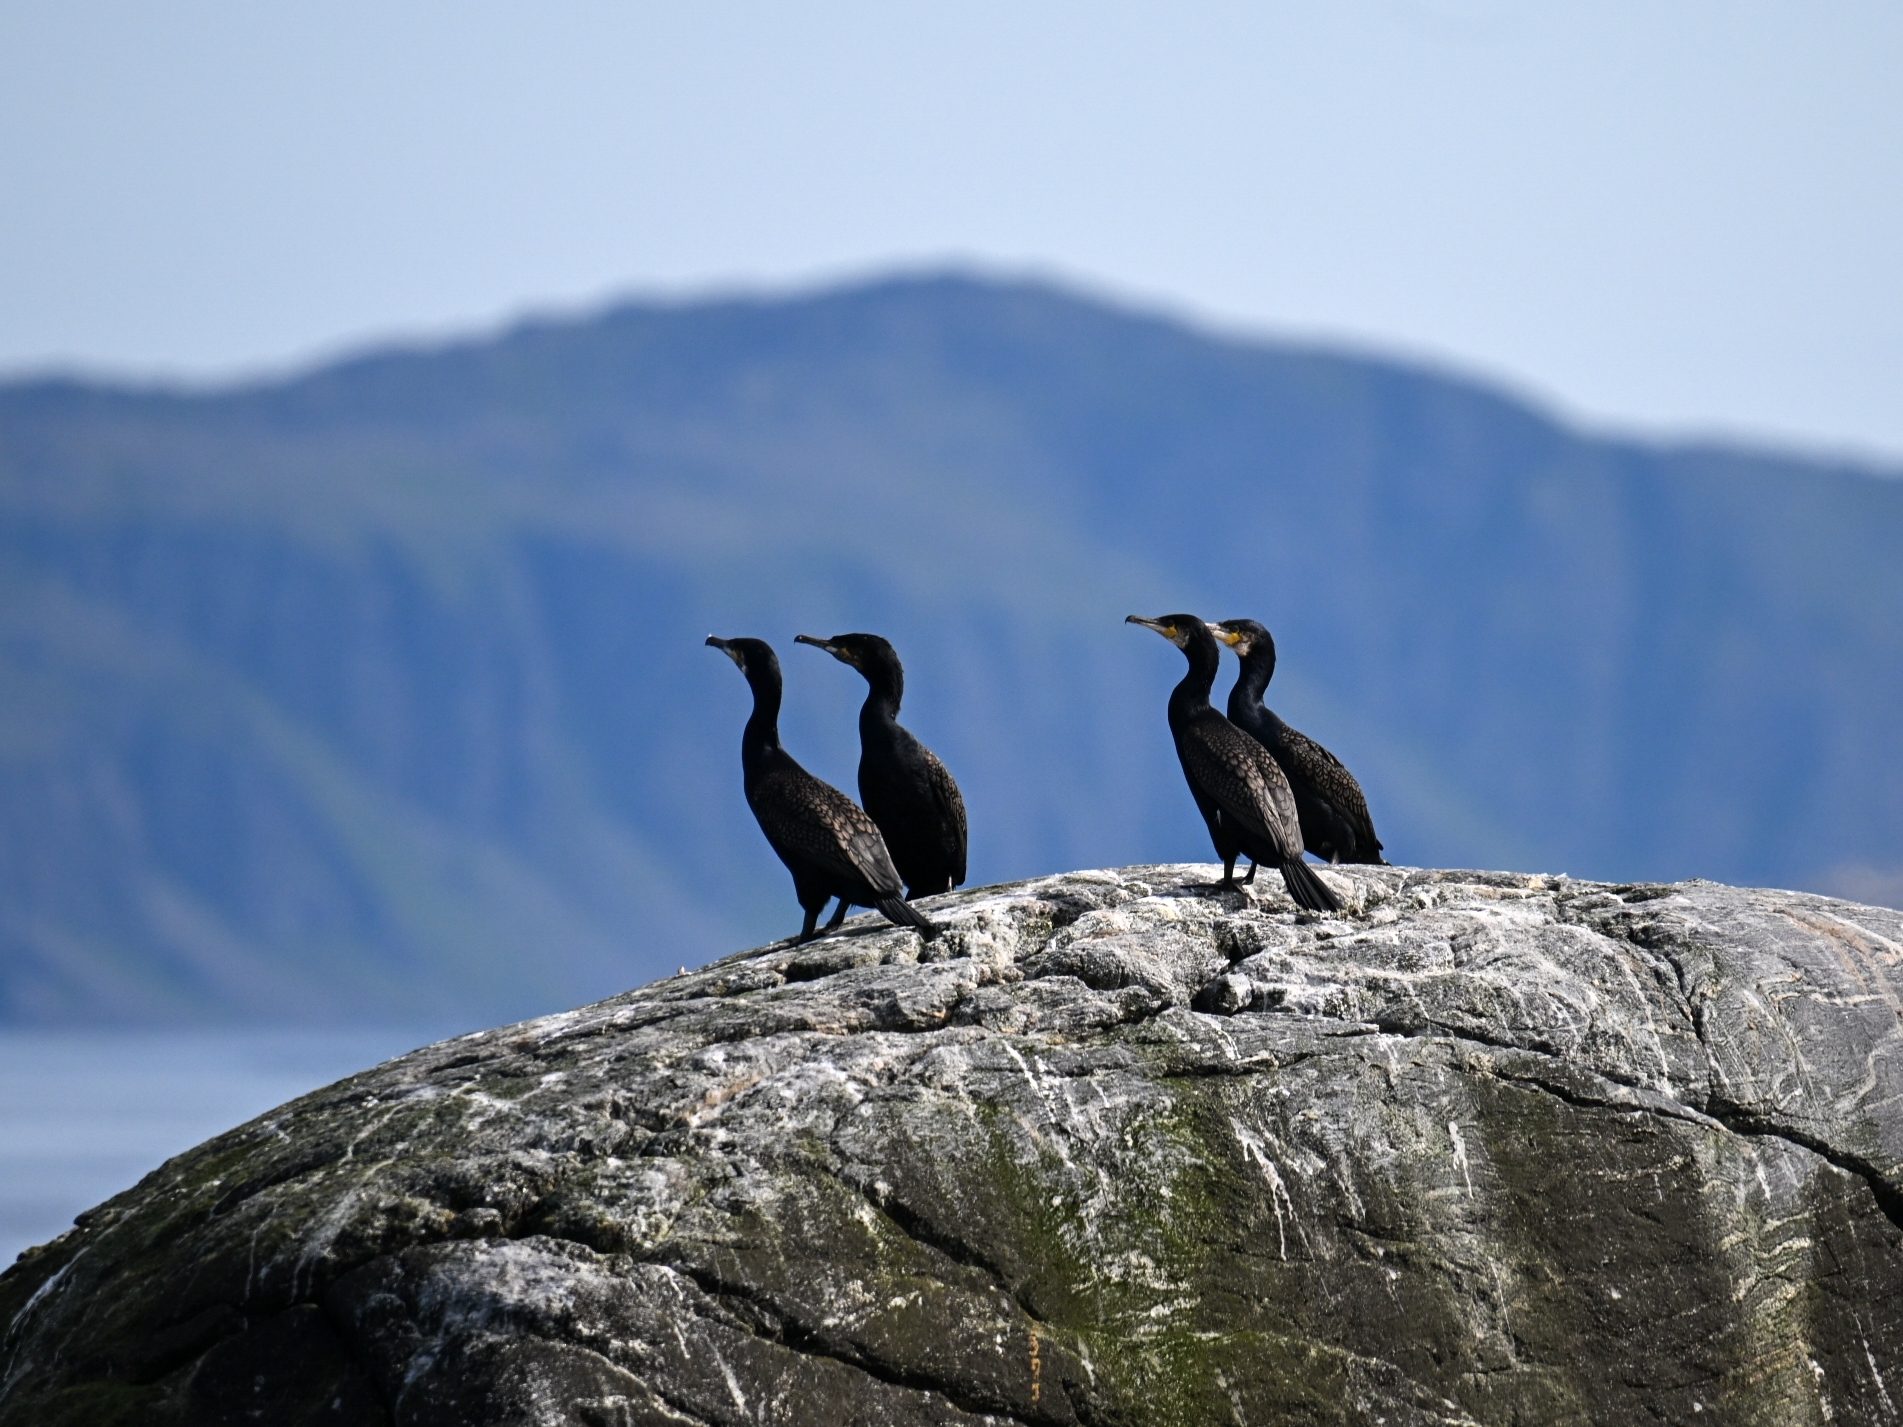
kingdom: Animalia
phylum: Chordata
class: Aves
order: Suliformes
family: Phalacrocoracidae
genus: Phalacrocorax
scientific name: Phalacrocorax carbo
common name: Great cormorant
